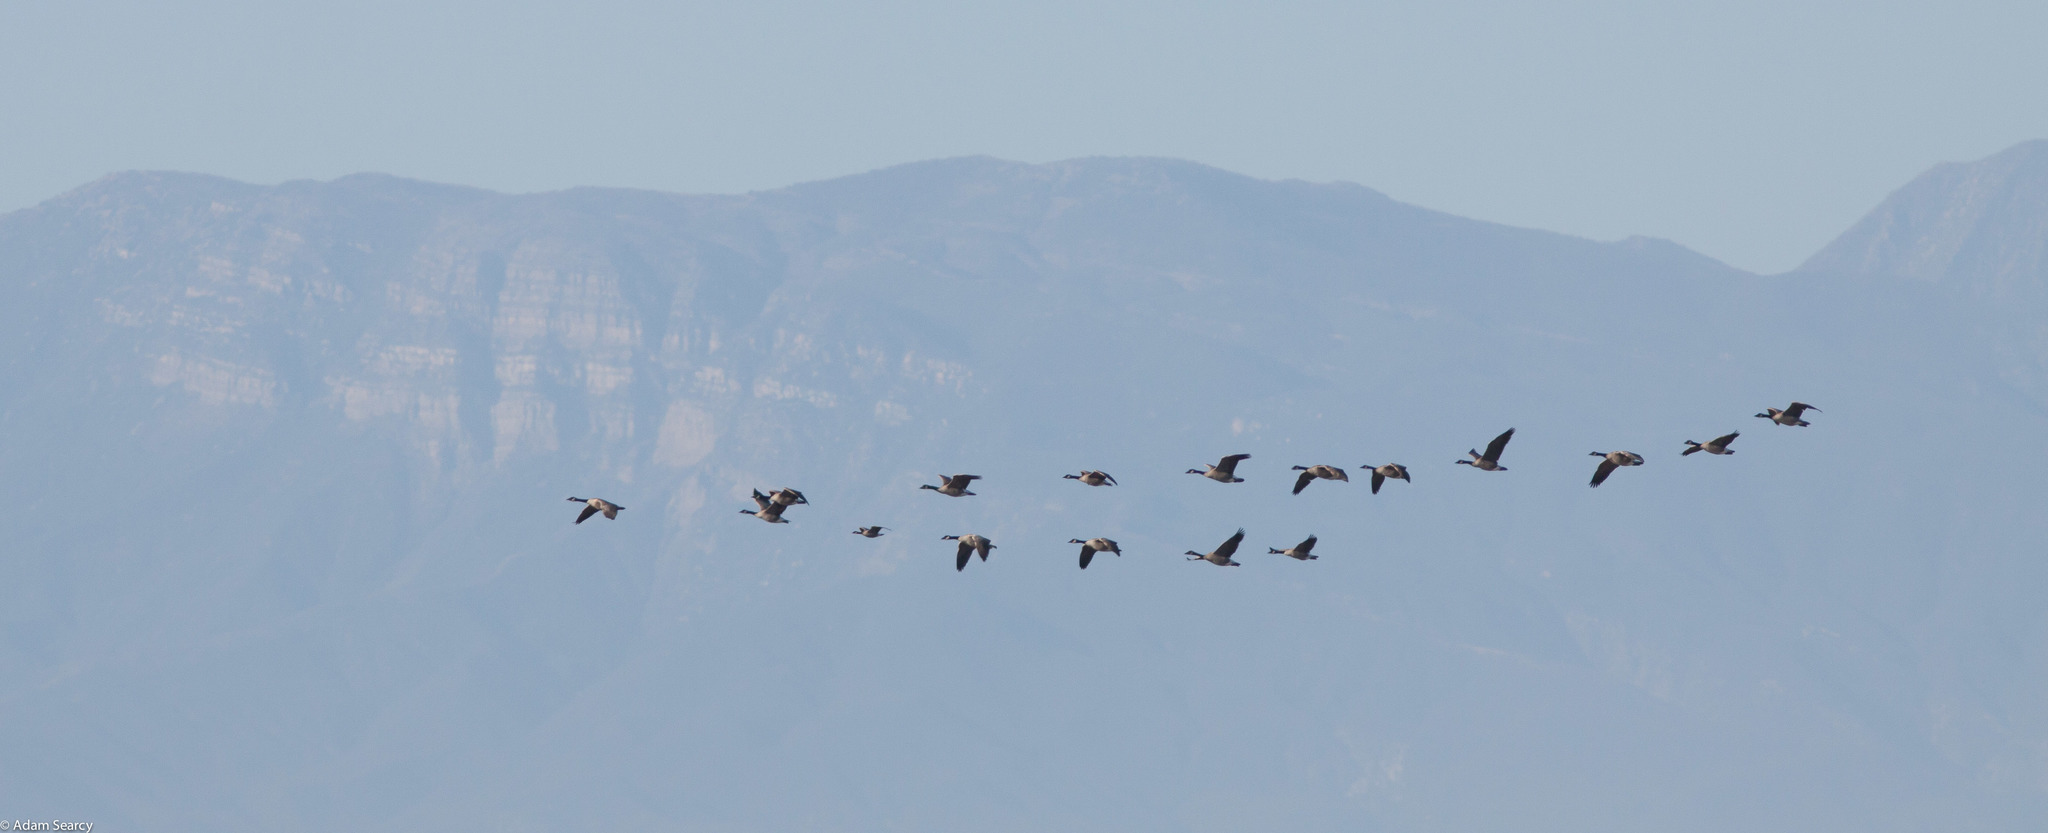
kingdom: Animalia
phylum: Chordata
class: Aves
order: Anseriformes
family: Anatidae
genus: Branta
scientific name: Branta canadensis
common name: Canada goose
